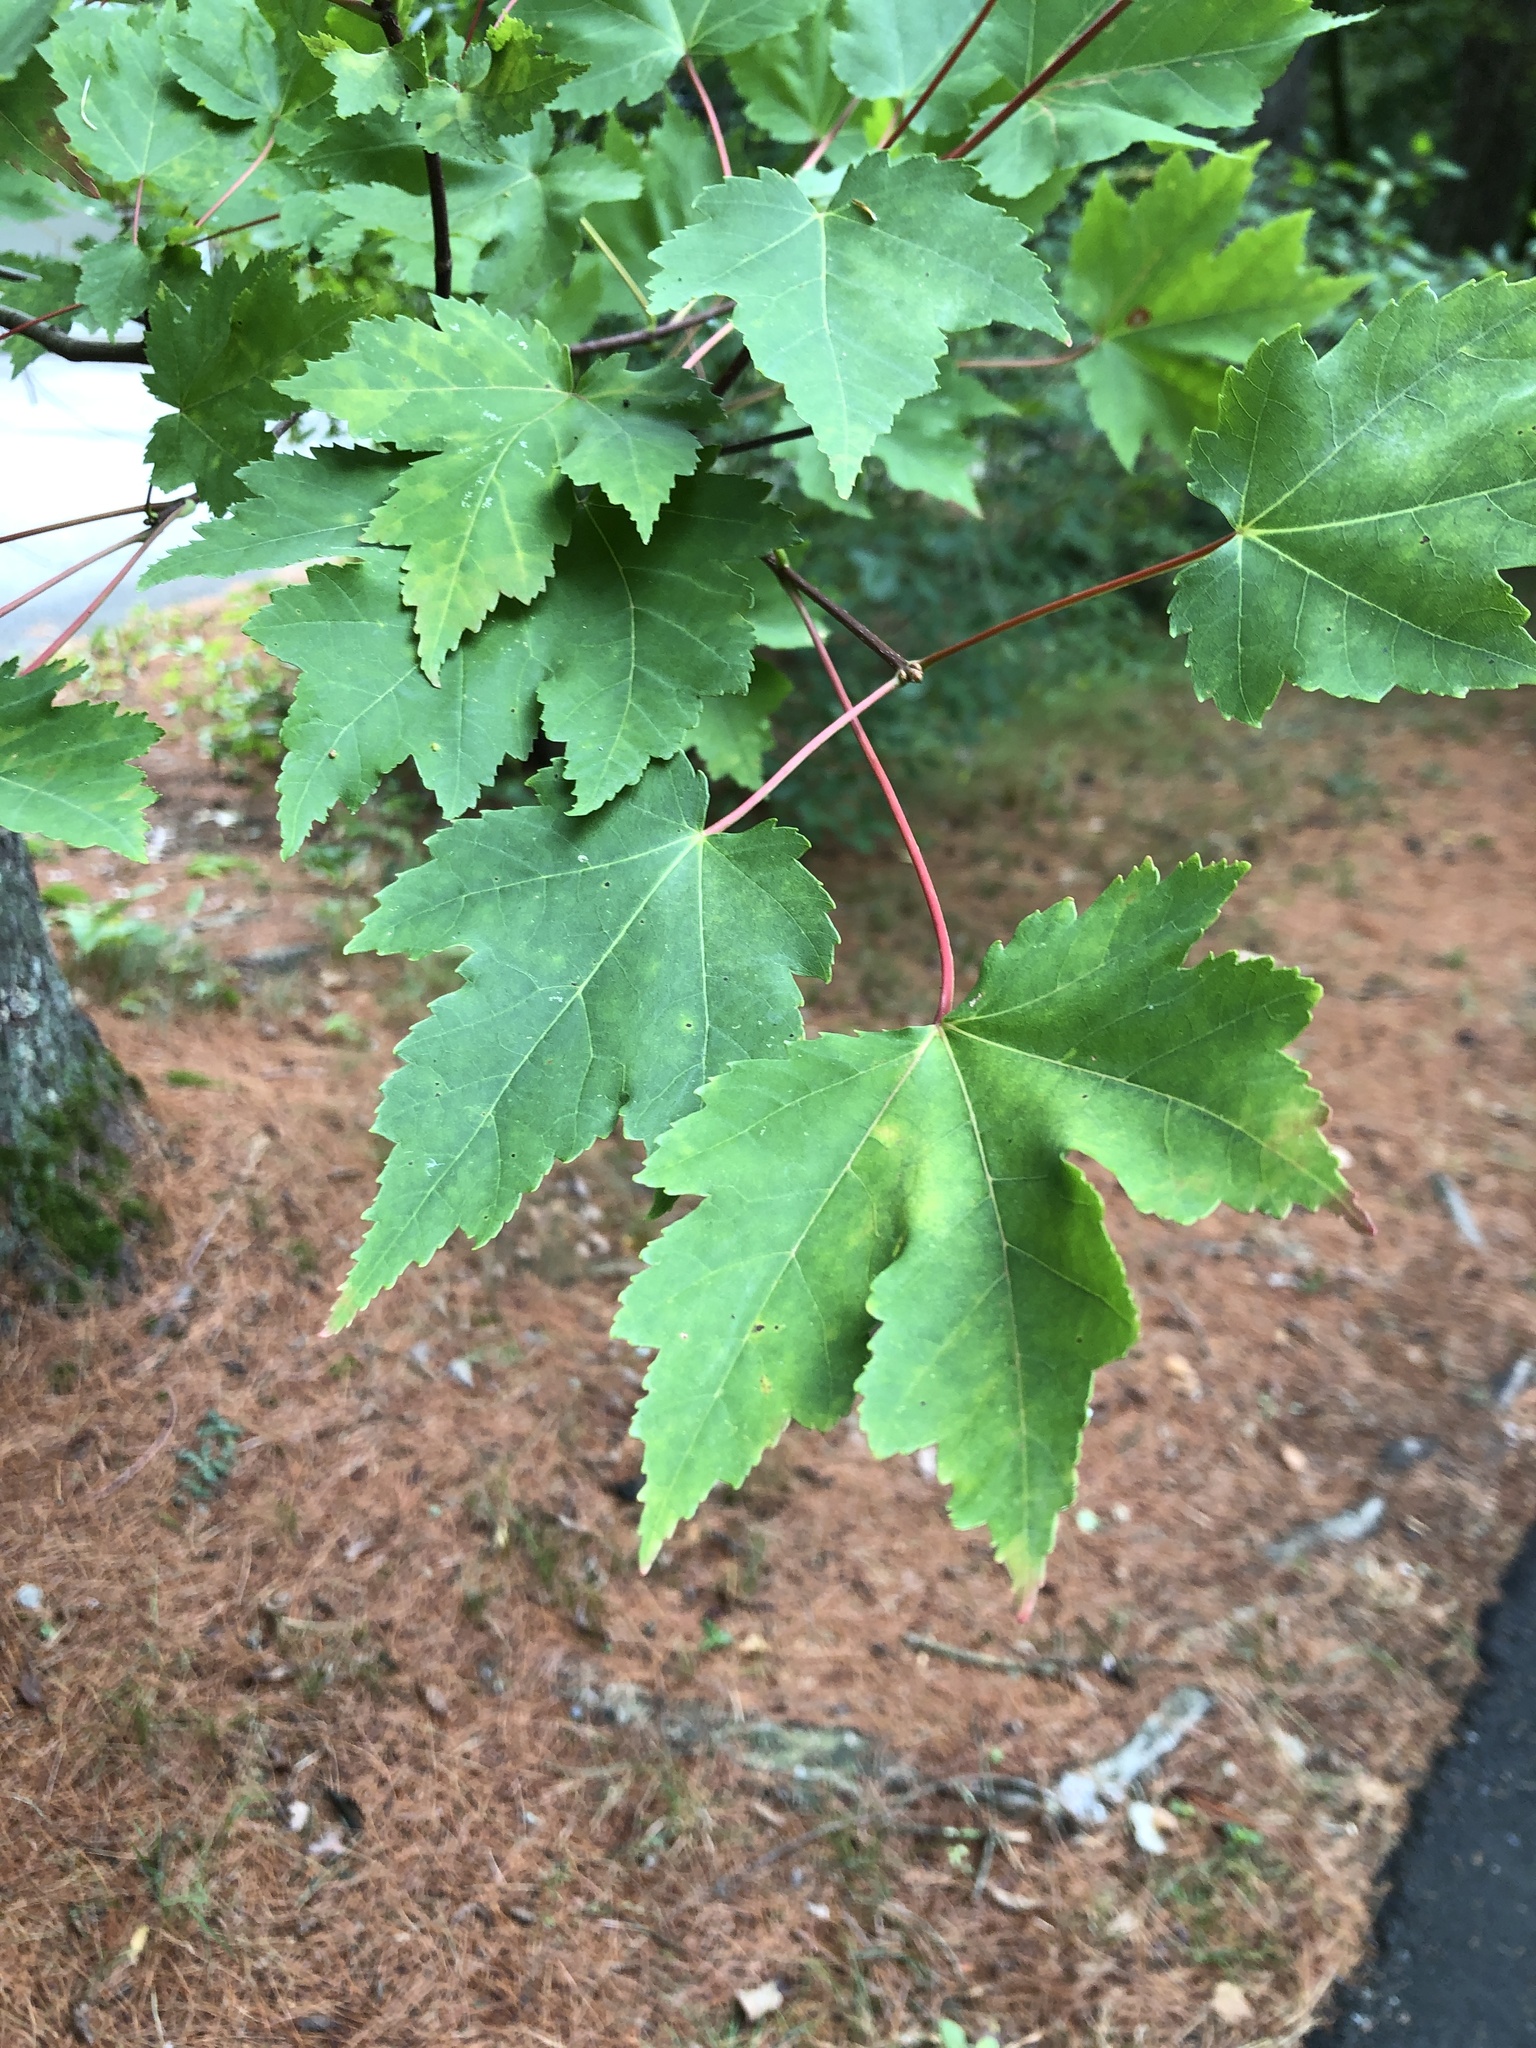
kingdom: Plantae
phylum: Tracheophyta
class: Magnoliopsida
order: Sapindales
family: Sapindaceae
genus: Acer
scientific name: Acer rubrum
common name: Red maple
